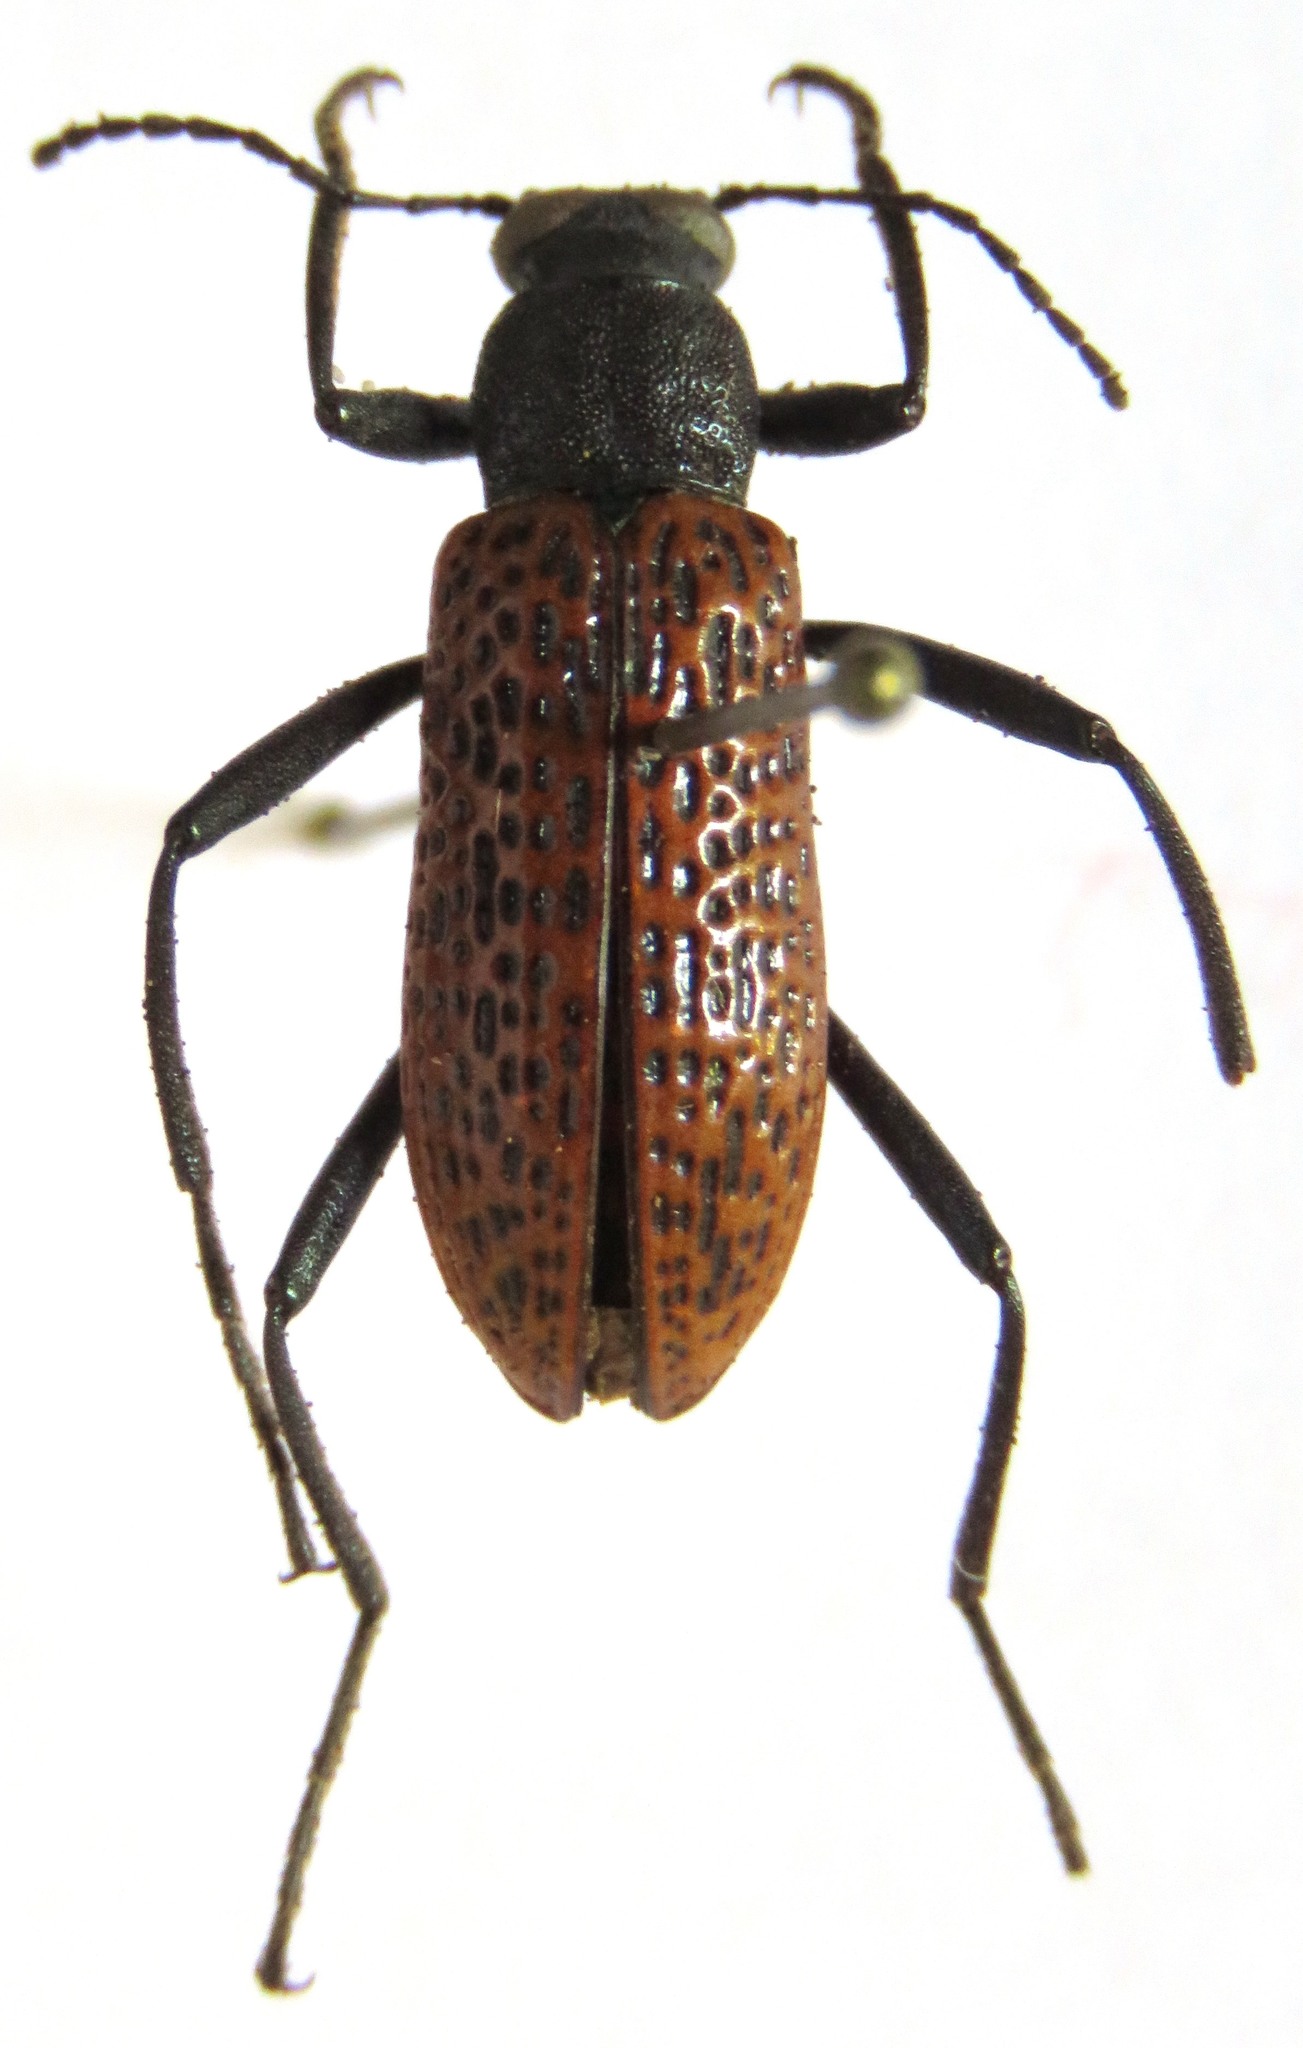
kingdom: Animalia
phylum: Arthropoda
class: Insecta
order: Coleoptera
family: Tenebrionidae
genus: Strongylium
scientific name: Strongylium
